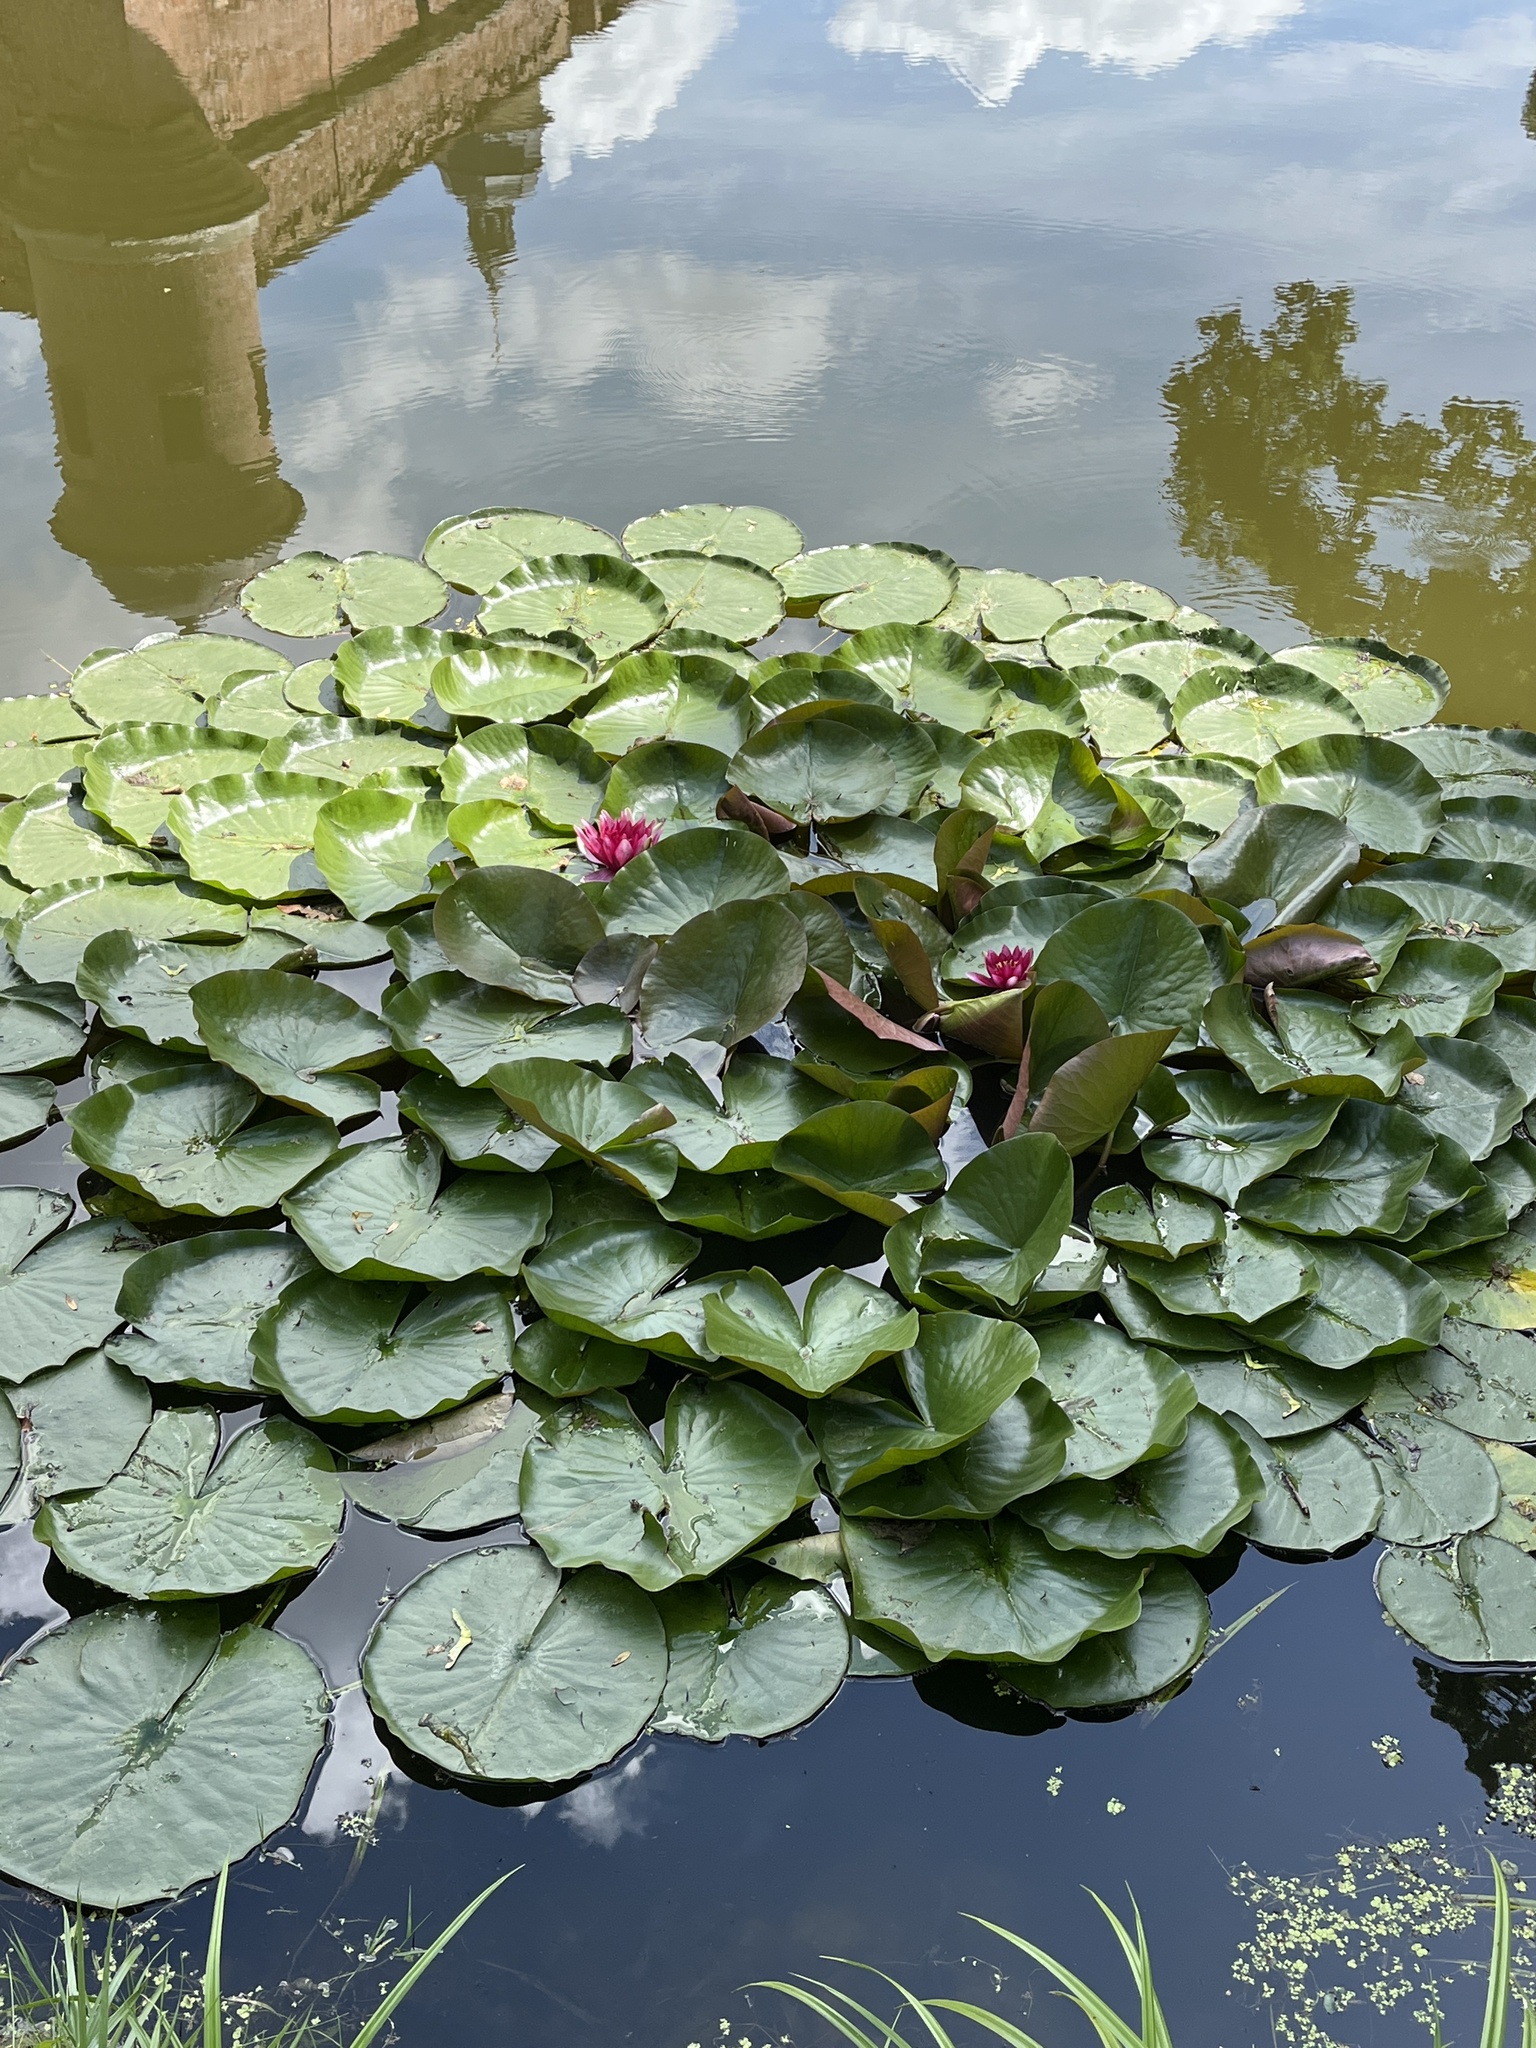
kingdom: Plantae
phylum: Tracheophyta
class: Magnoliopsida
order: Nymphaeales
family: Nymphaeaceae
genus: Nymphaea
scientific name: Nymphaea marliacea
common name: Water-lily
